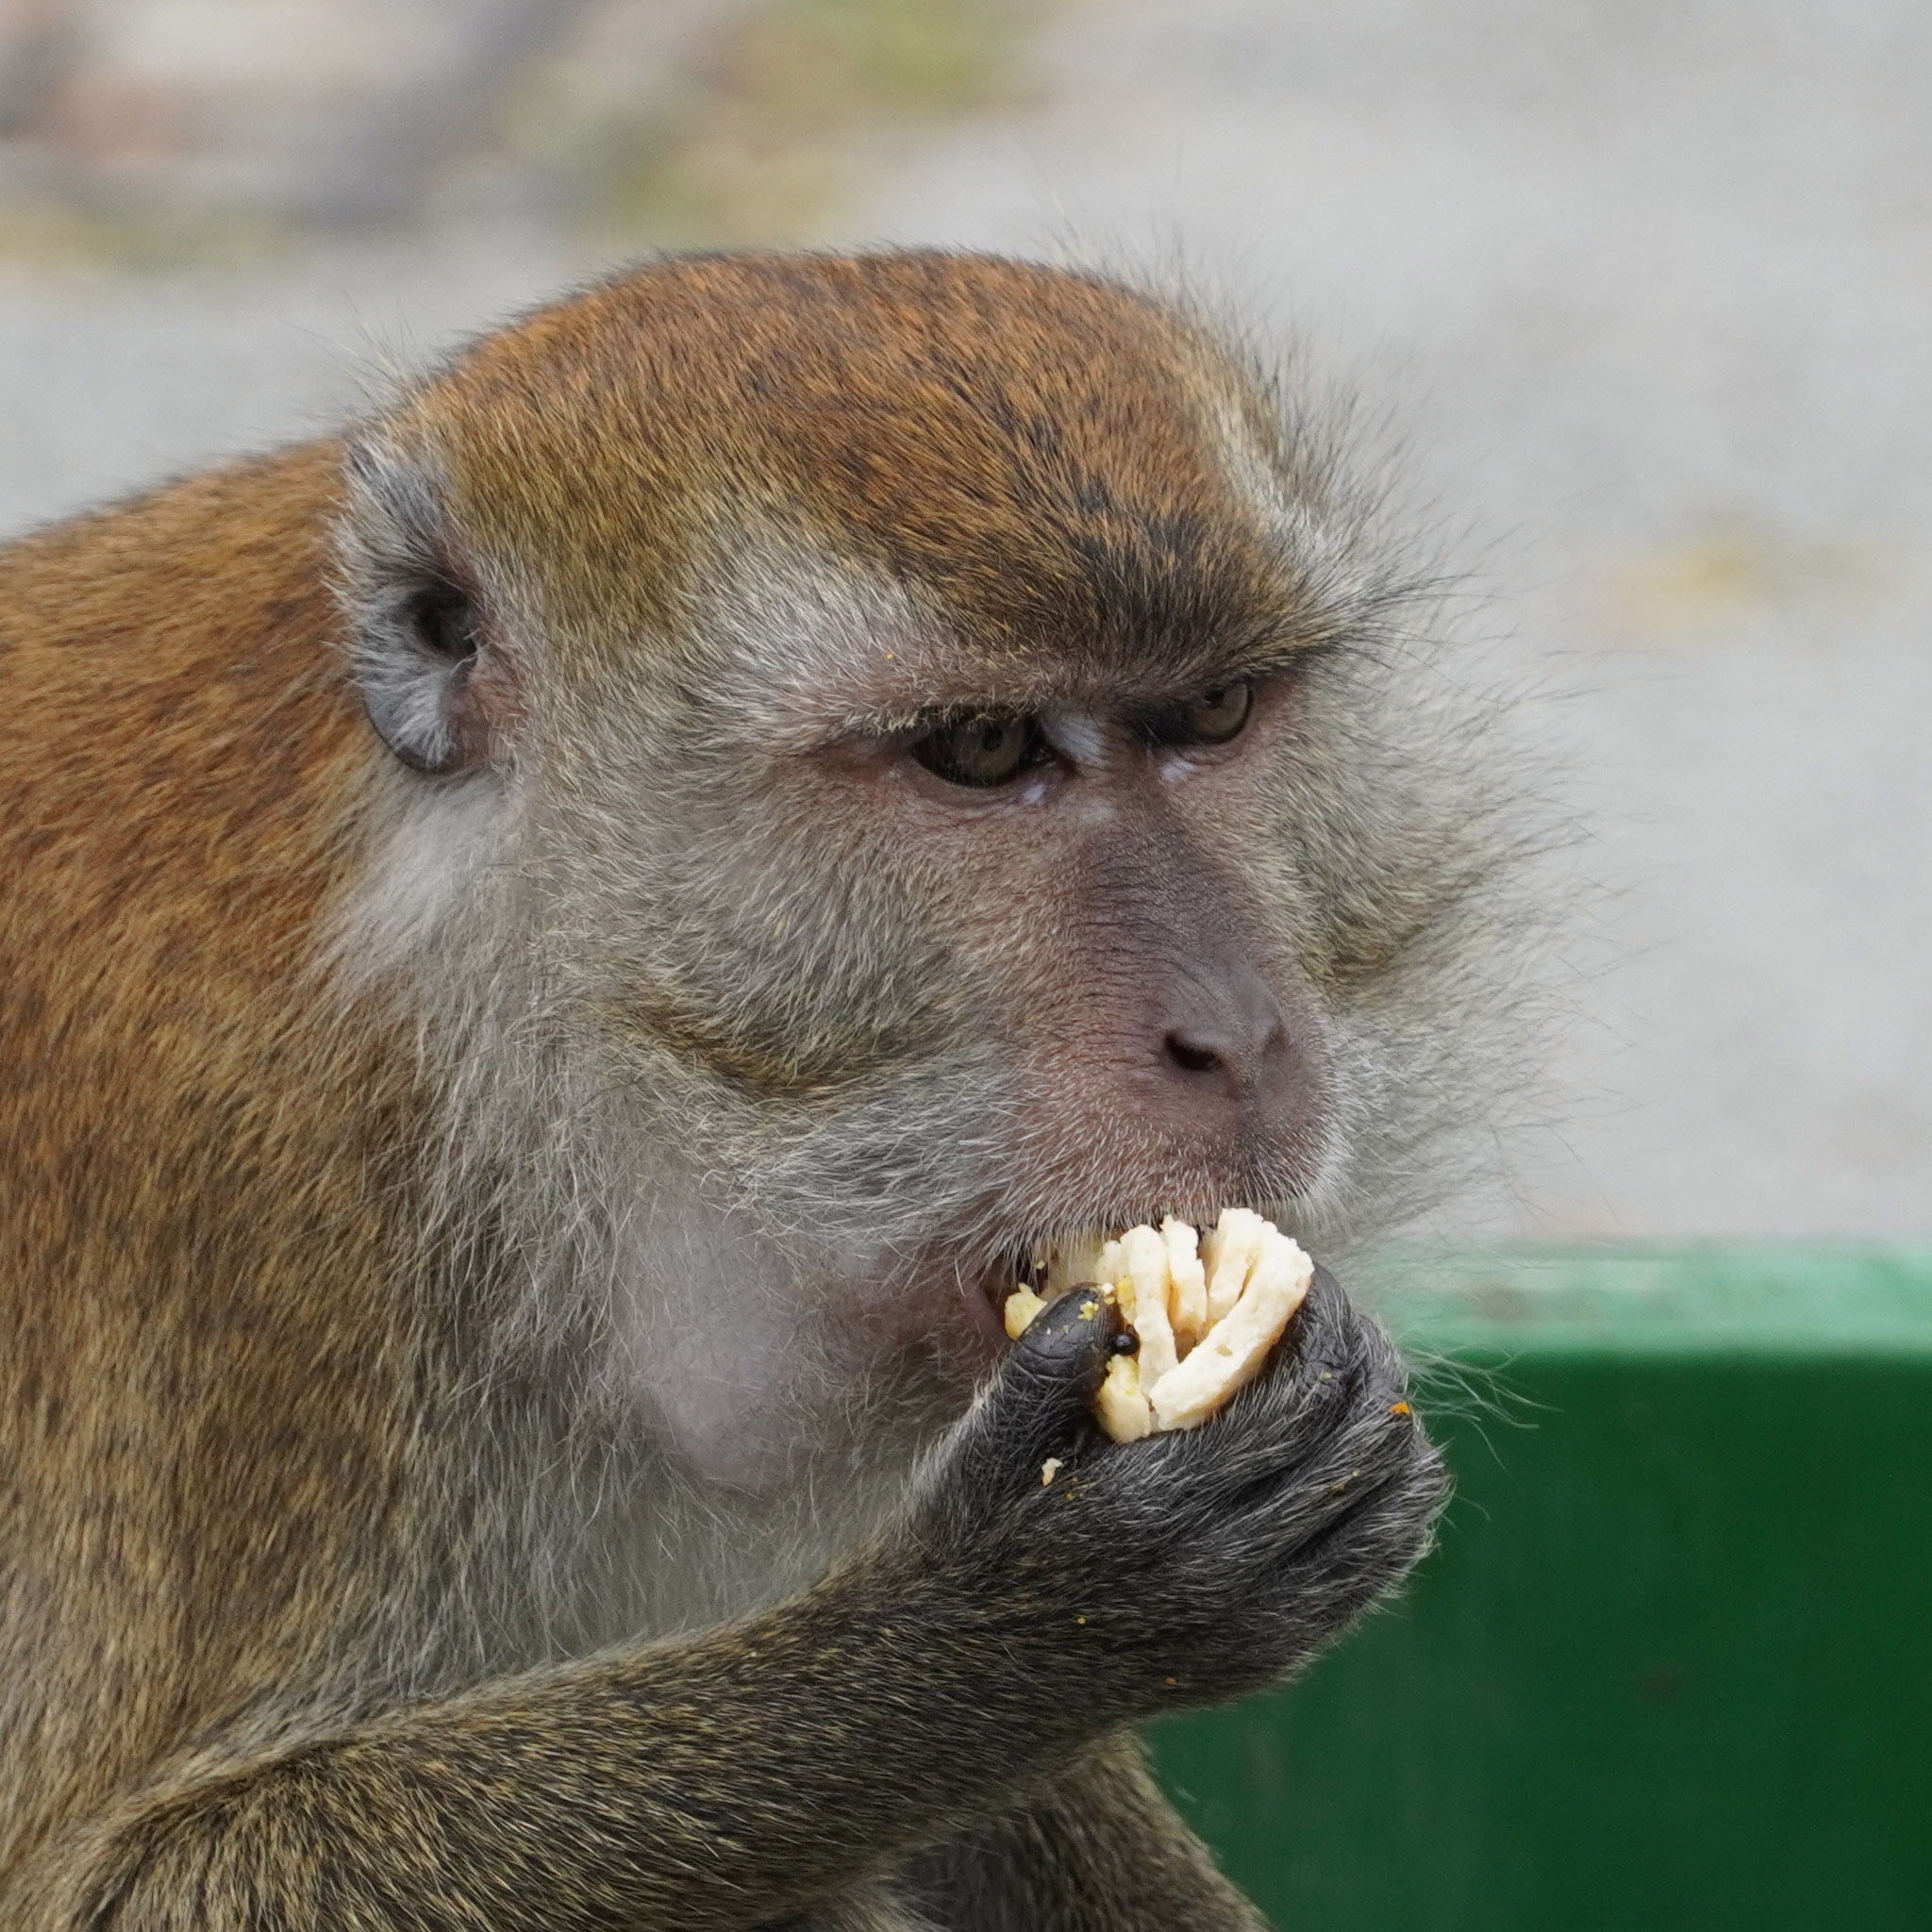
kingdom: Animalia
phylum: Chordata
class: Mammalia
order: Primates
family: Cercopithecidae
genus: Macaca
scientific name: Macaca fascicularis
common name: Crab-eating macaque
